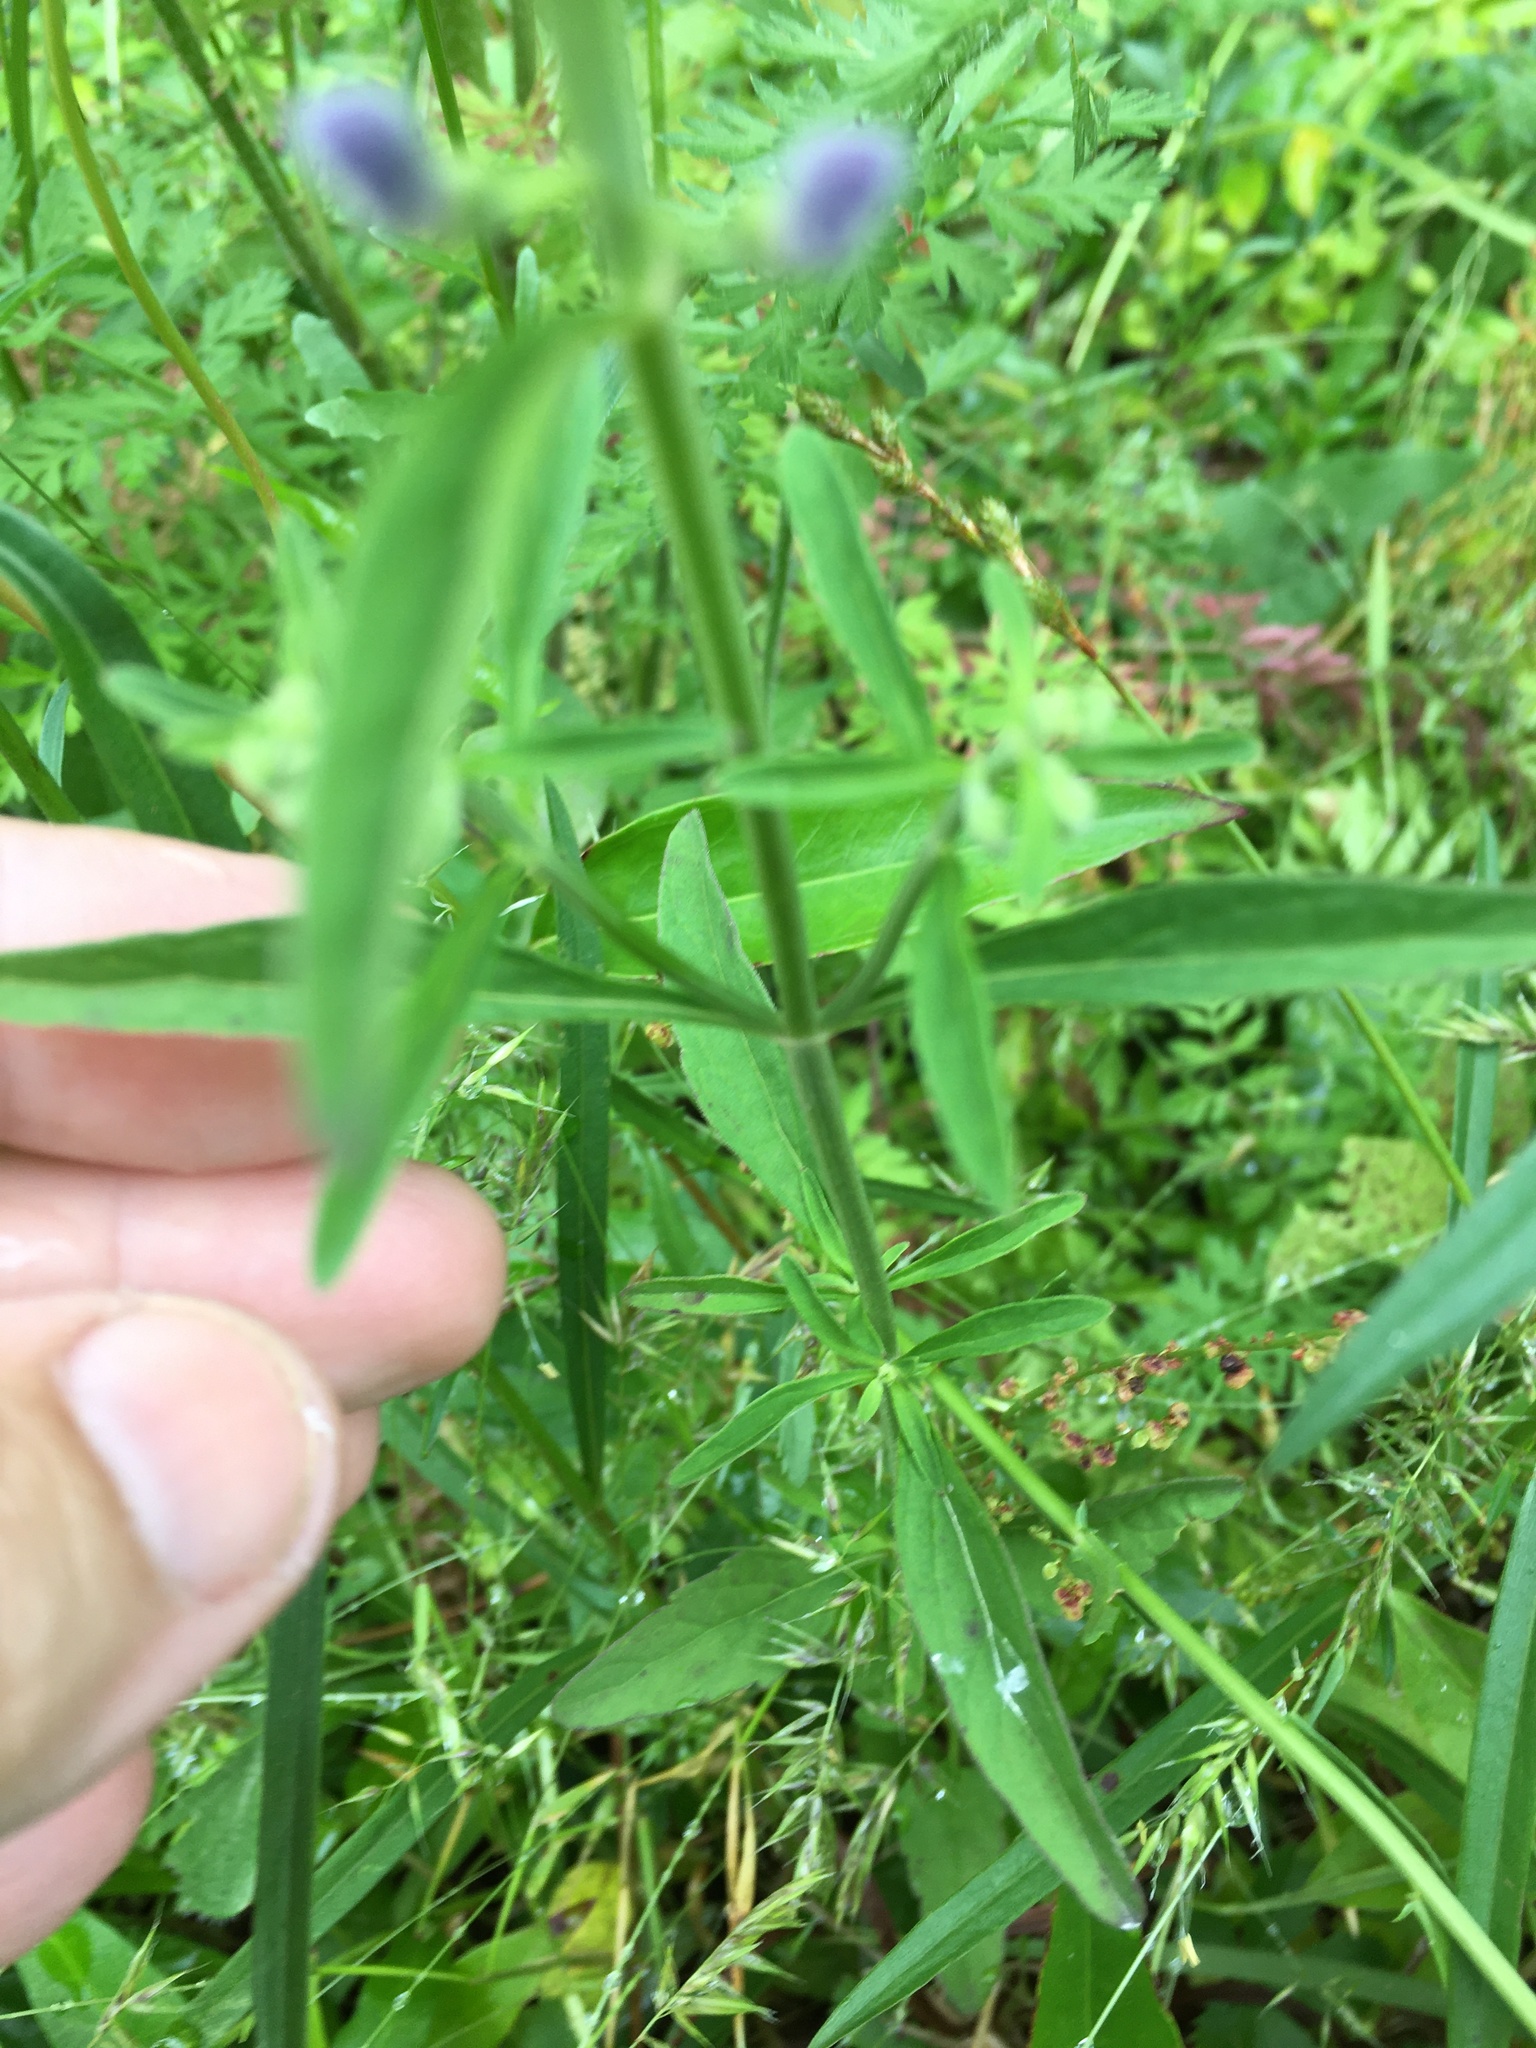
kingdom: Plantae
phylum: Tracheophyta
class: Magnoliopsida
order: Lamiales
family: Lamiaceae
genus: Scutellaria
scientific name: Scutellaria integrifolia
